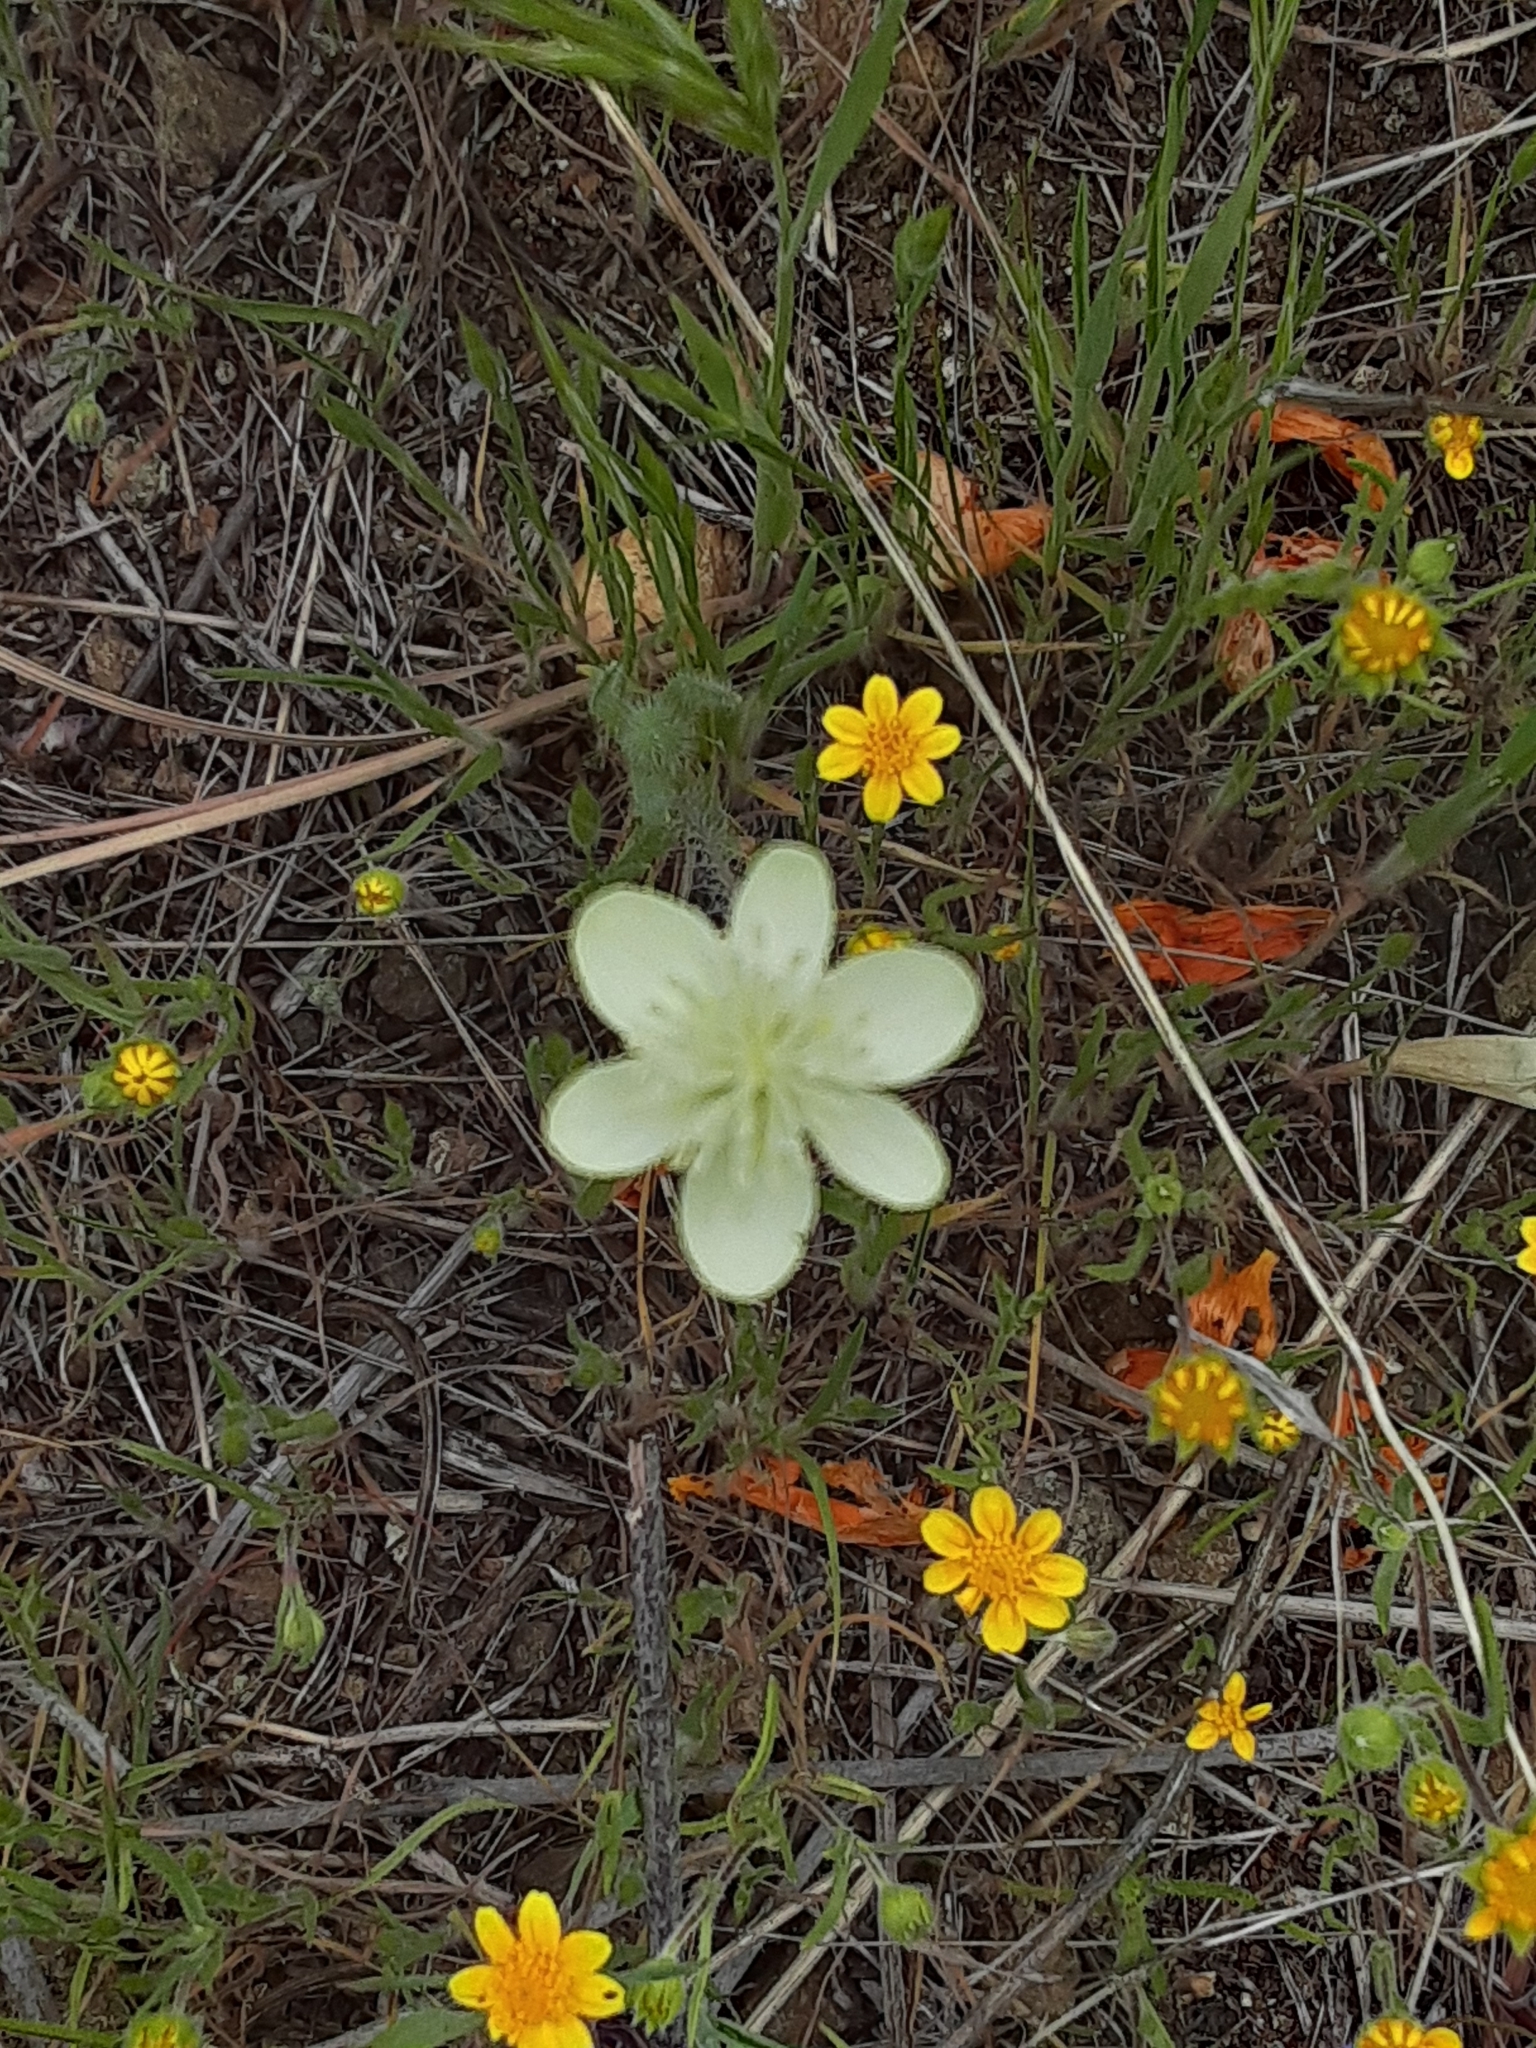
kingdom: Plantae
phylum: Tracheophyta
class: Magnoliopsida
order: Ranunculales
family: Papaveraceae
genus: Platystemon
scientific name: Platystemon californicus
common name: Cream-cups
